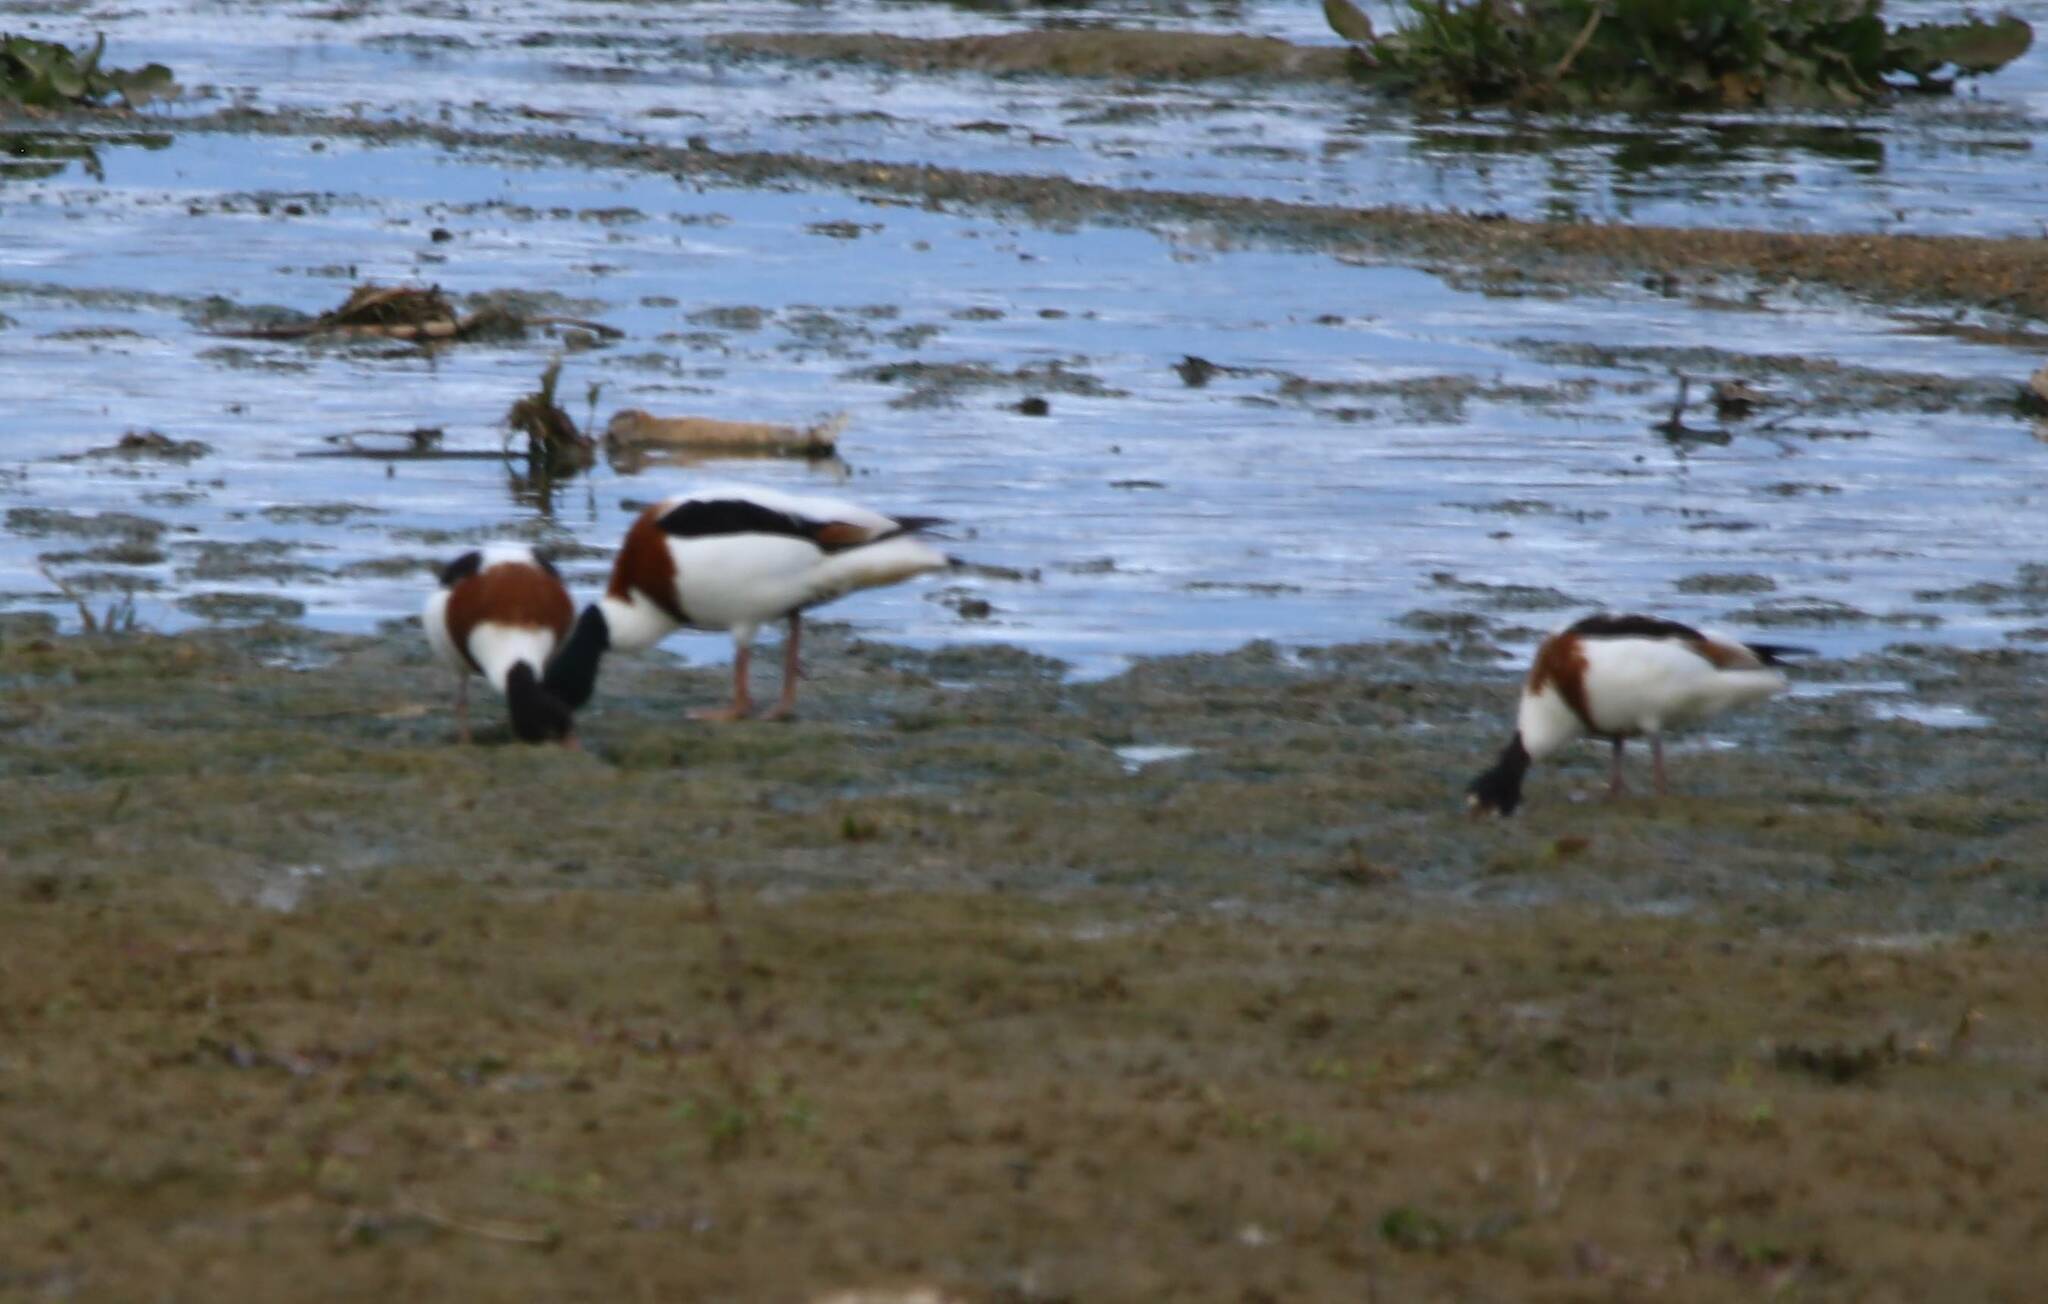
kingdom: Animalia
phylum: Chordata
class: Aves
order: Anseriformes
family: Anatidae
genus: Tadorna
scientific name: Tadorna tadorna
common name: Common shelduck
